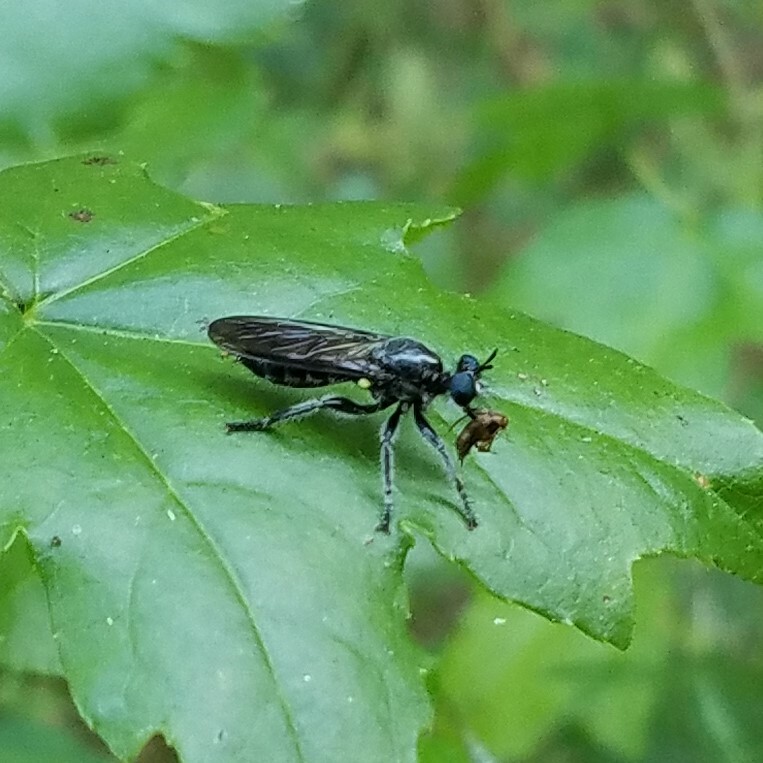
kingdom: Animalia
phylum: Arthropoda
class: Insecta
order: Diptera
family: Asilidae
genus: Laphria
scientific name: Laphria
